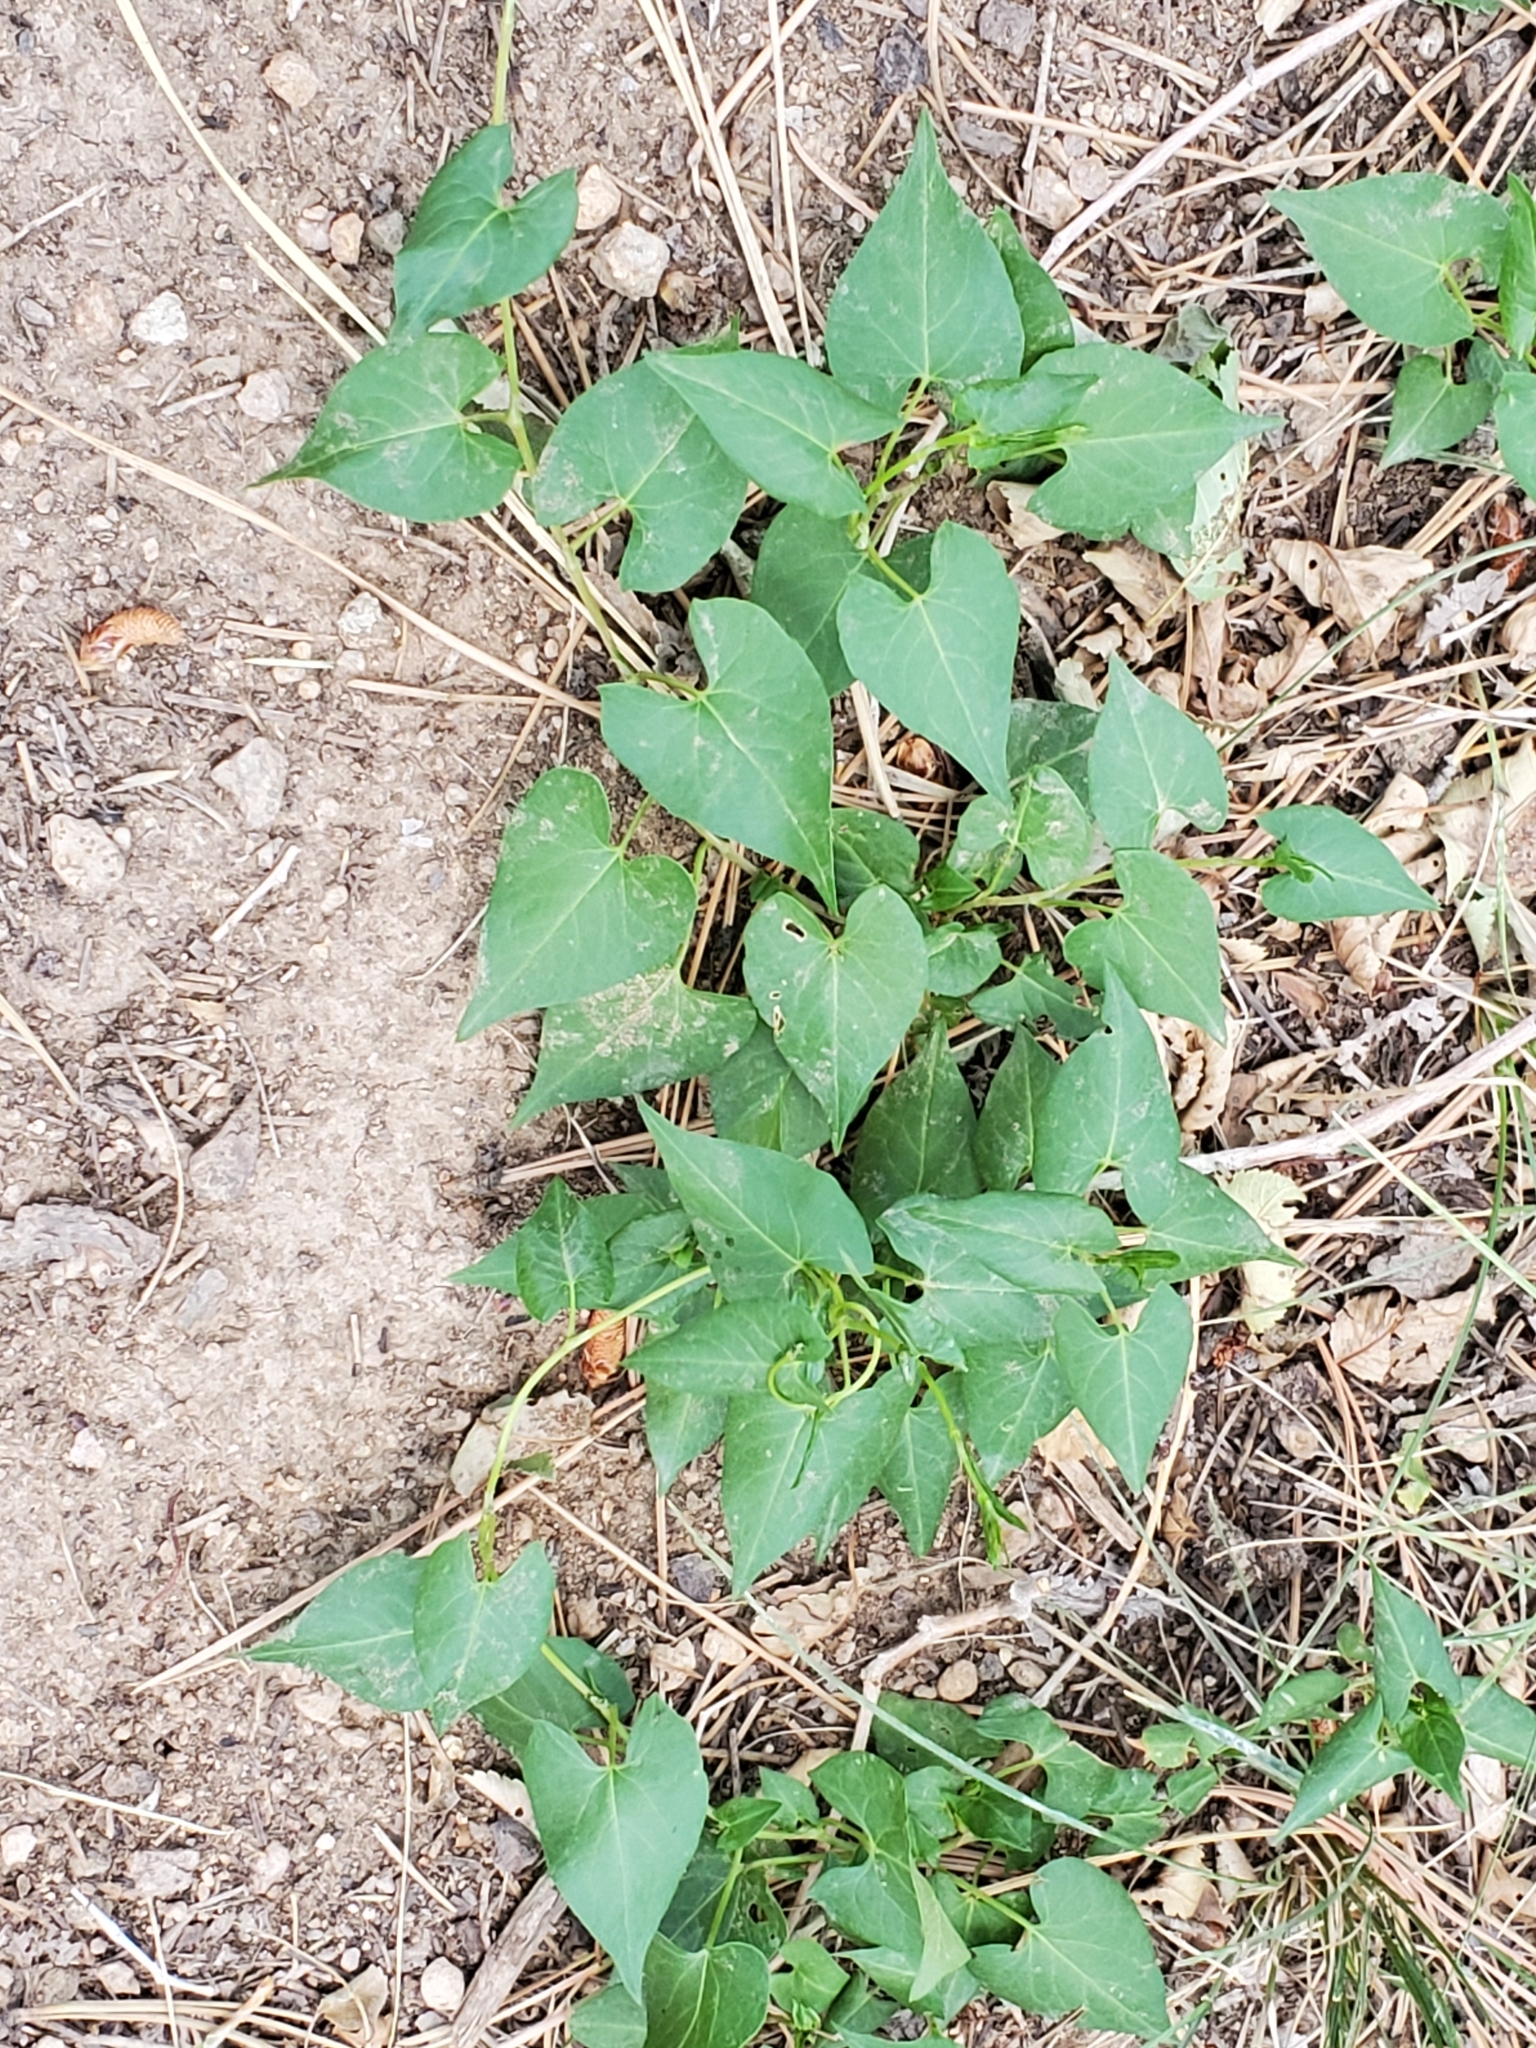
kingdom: Plantae
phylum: Tracheophyta
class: Magnoliopsida
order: Caryophyllales
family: Polygonaceae
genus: Fallopia
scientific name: Fallopia convolvulus
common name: Black bindweed
